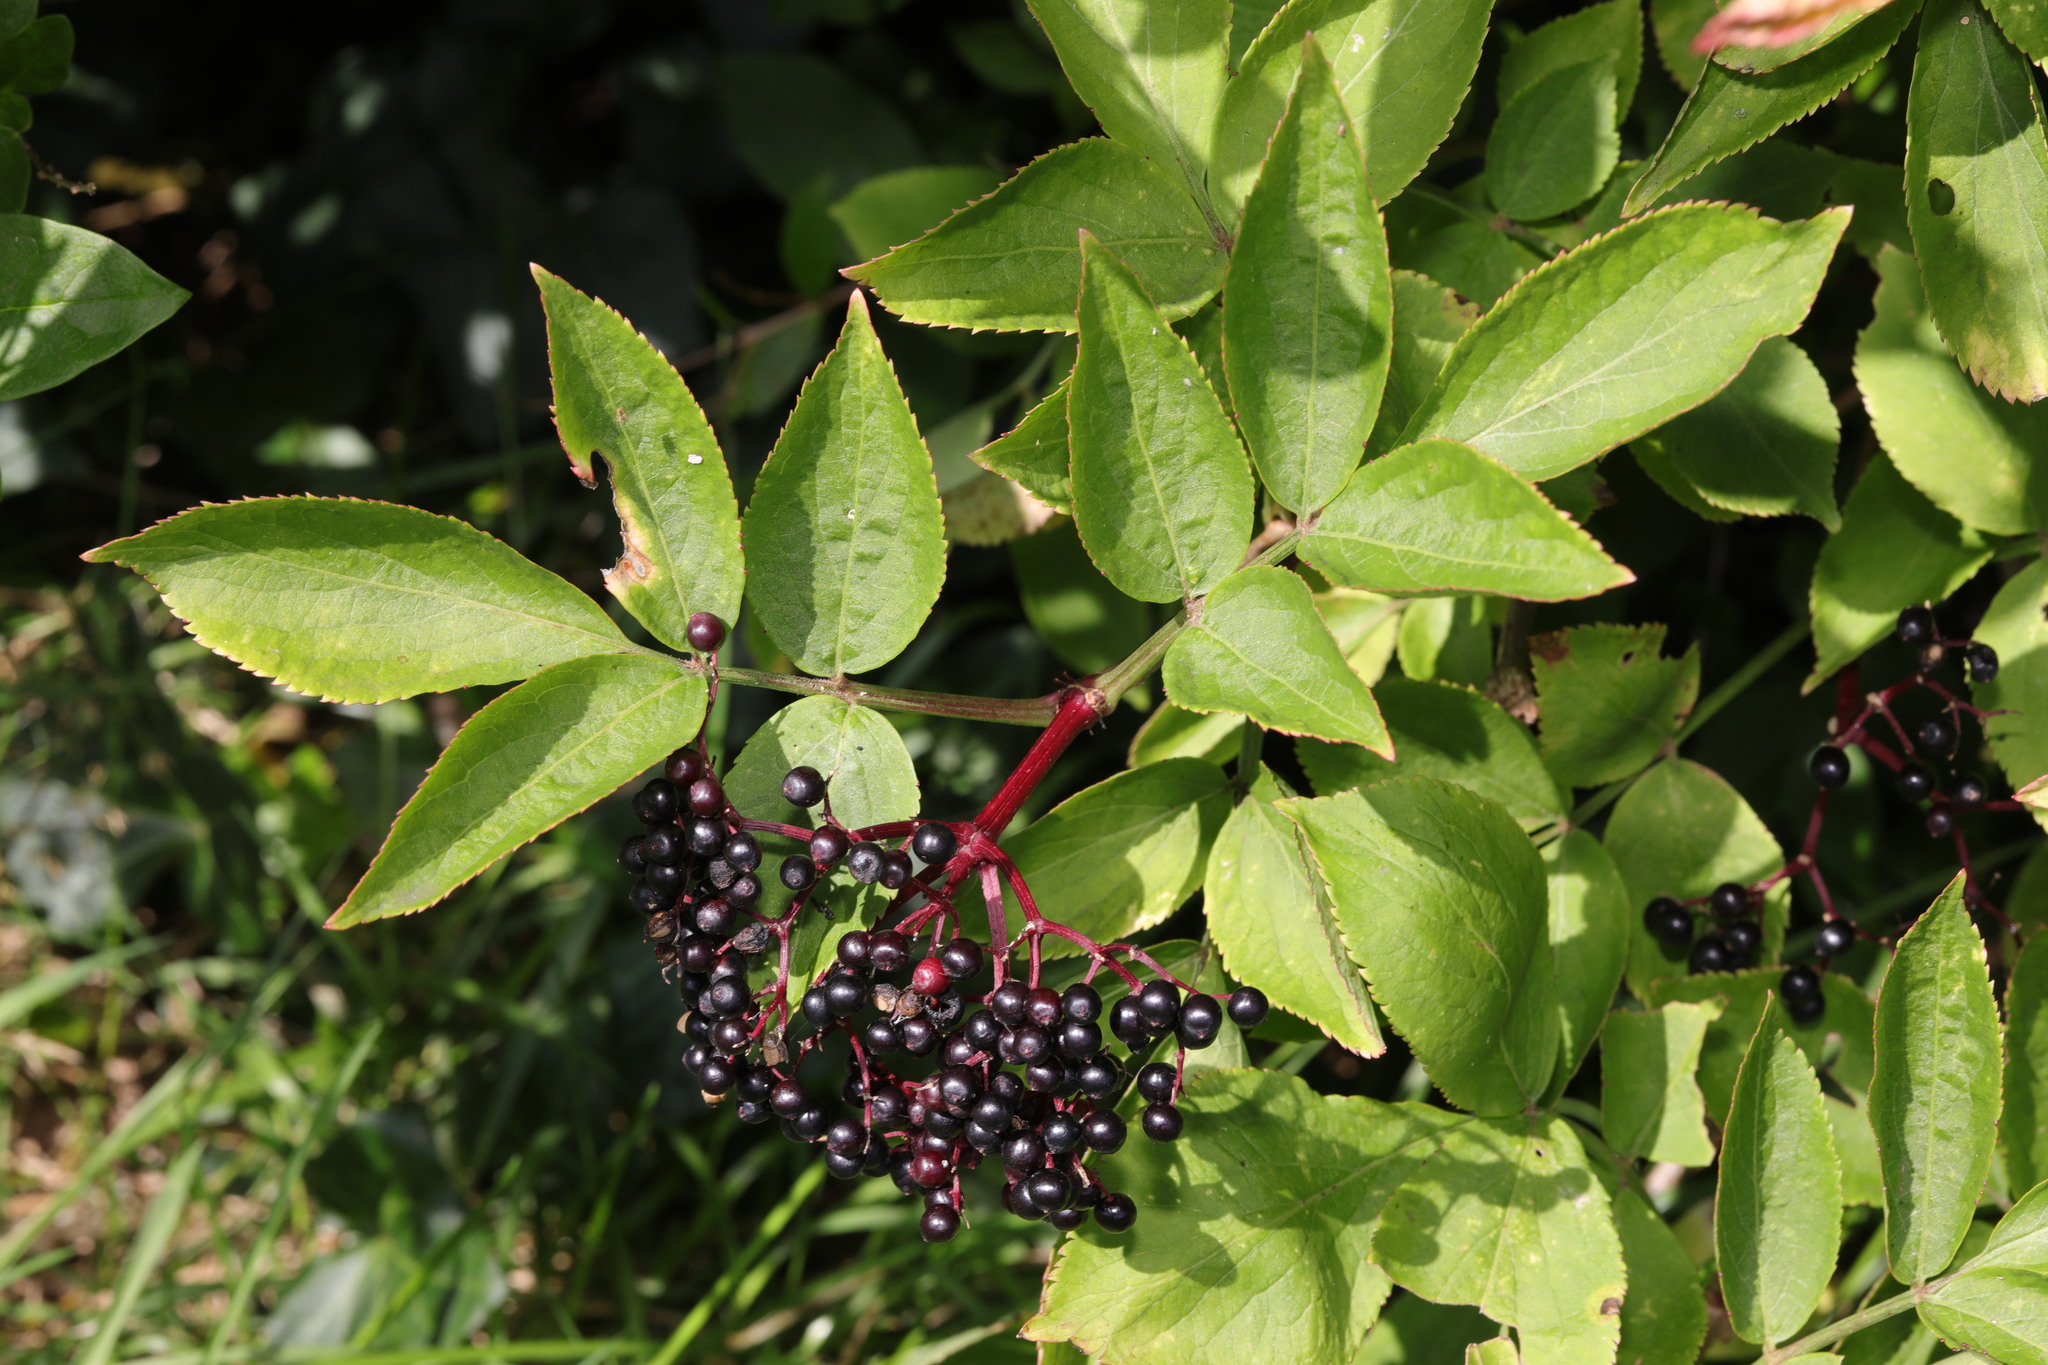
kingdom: Plantae
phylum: Tracheophyta
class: Magnoliopsida
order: Dipsacales
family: Viburnaceae
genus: Sambucus
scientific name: Sambucus nigra
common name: Elder
